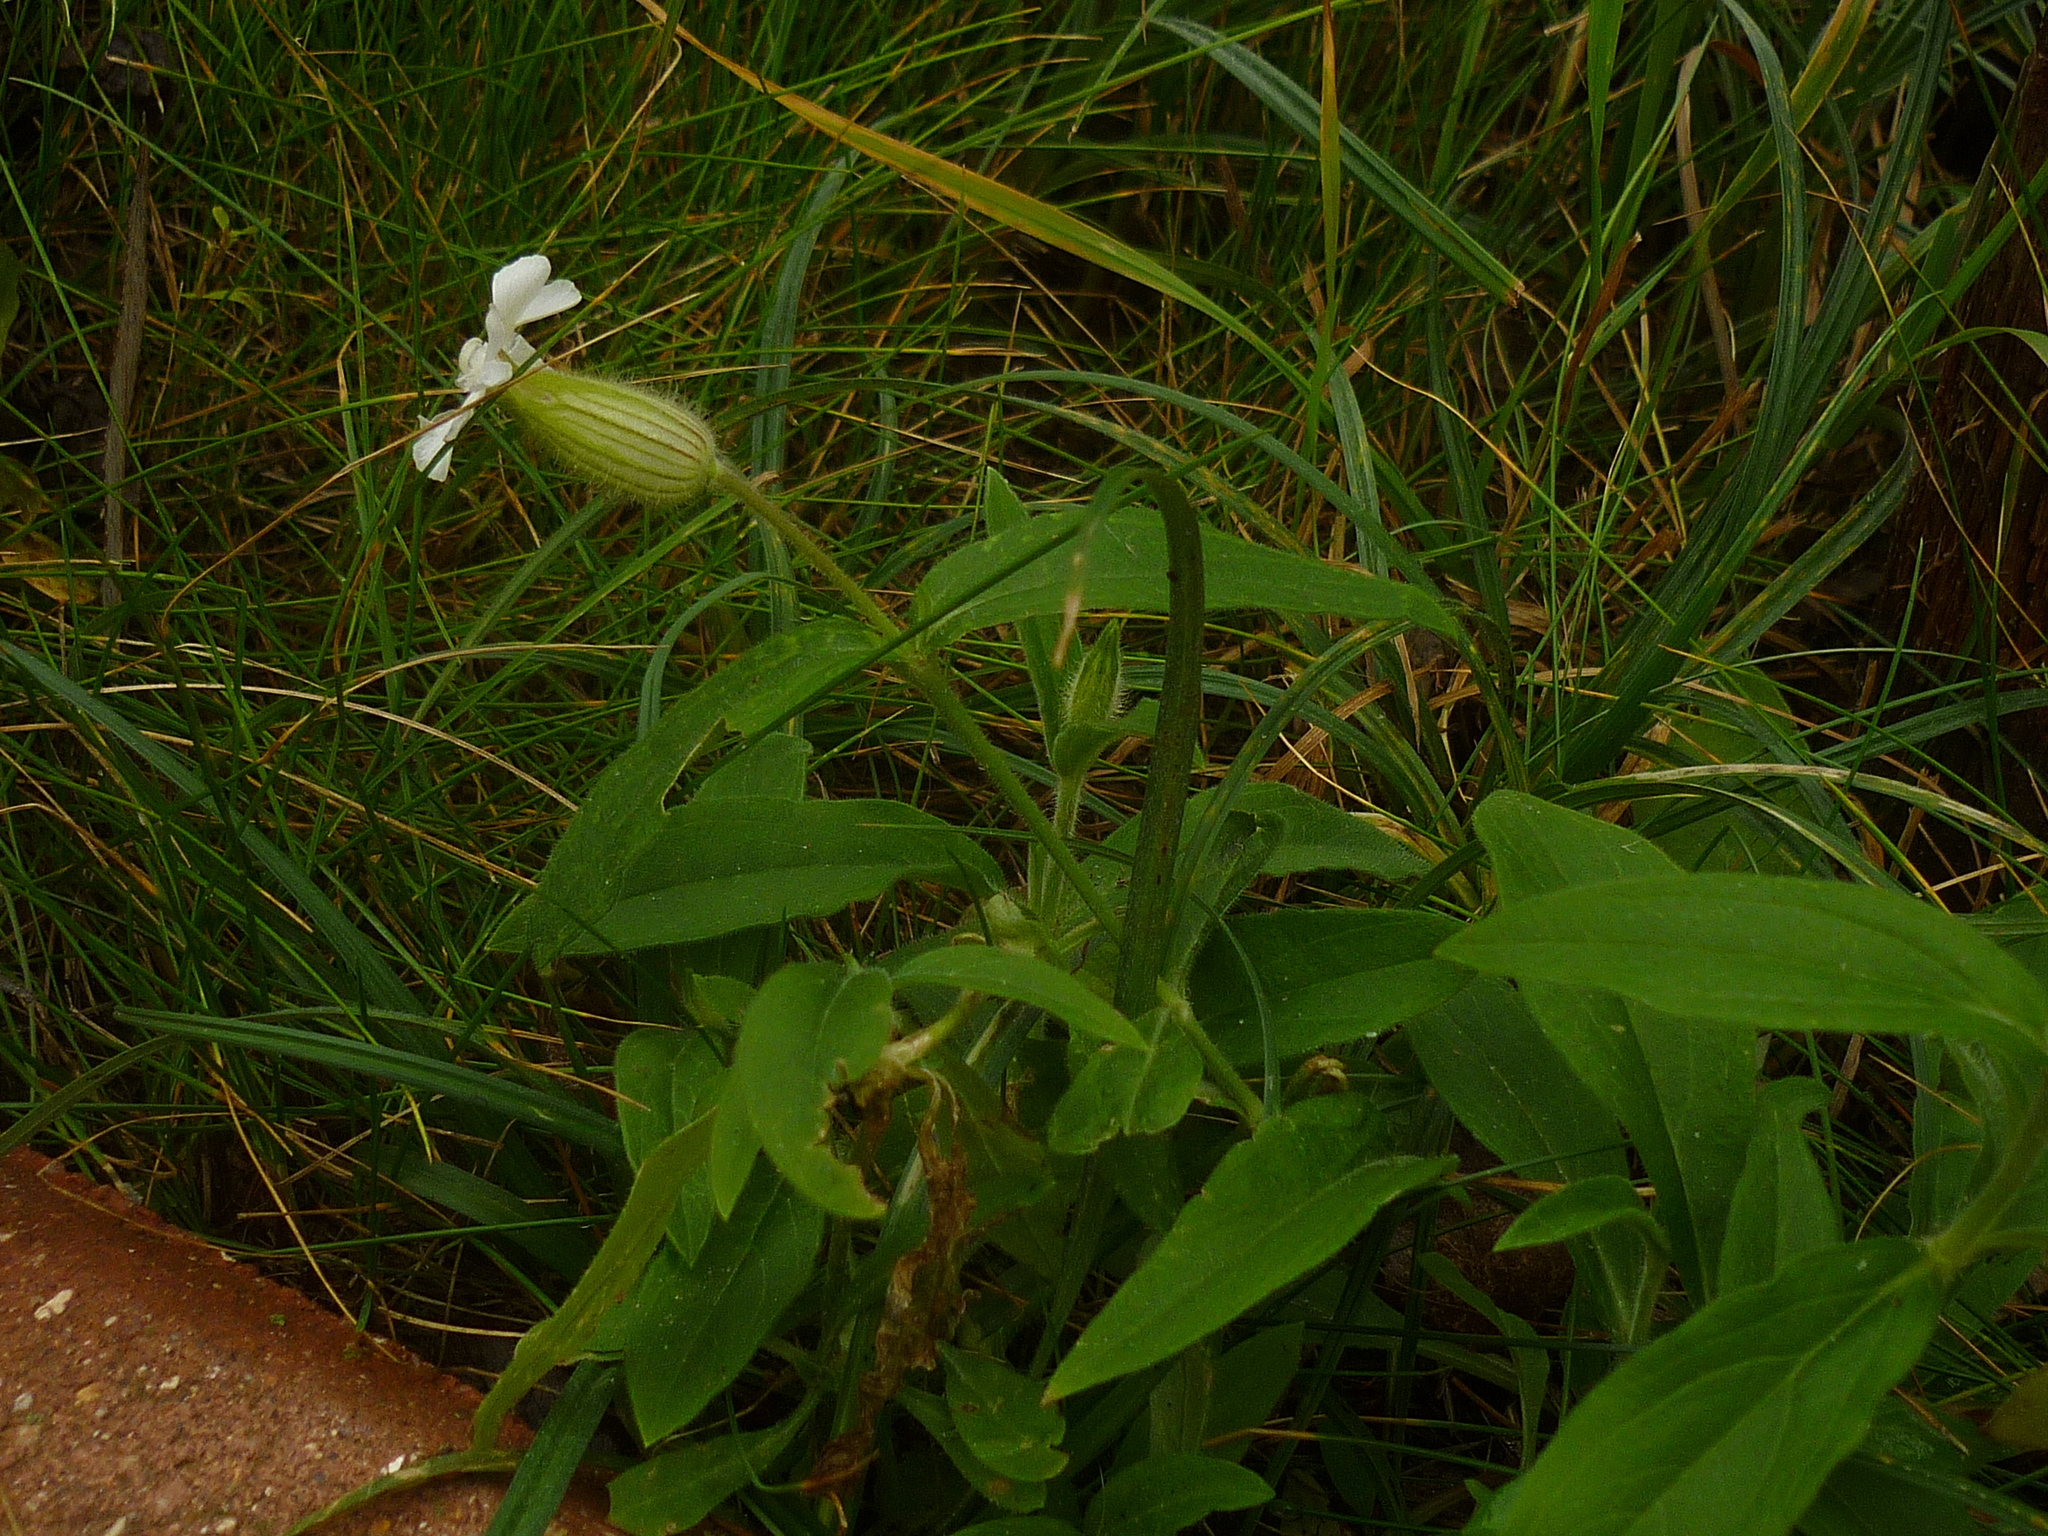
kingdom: Plantae
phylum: Tracheophyta
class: Magnoliopsida
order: Caryophyllales
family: Caryophyllaceae
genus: Silene
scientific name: Silene latifolia
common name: White campion
